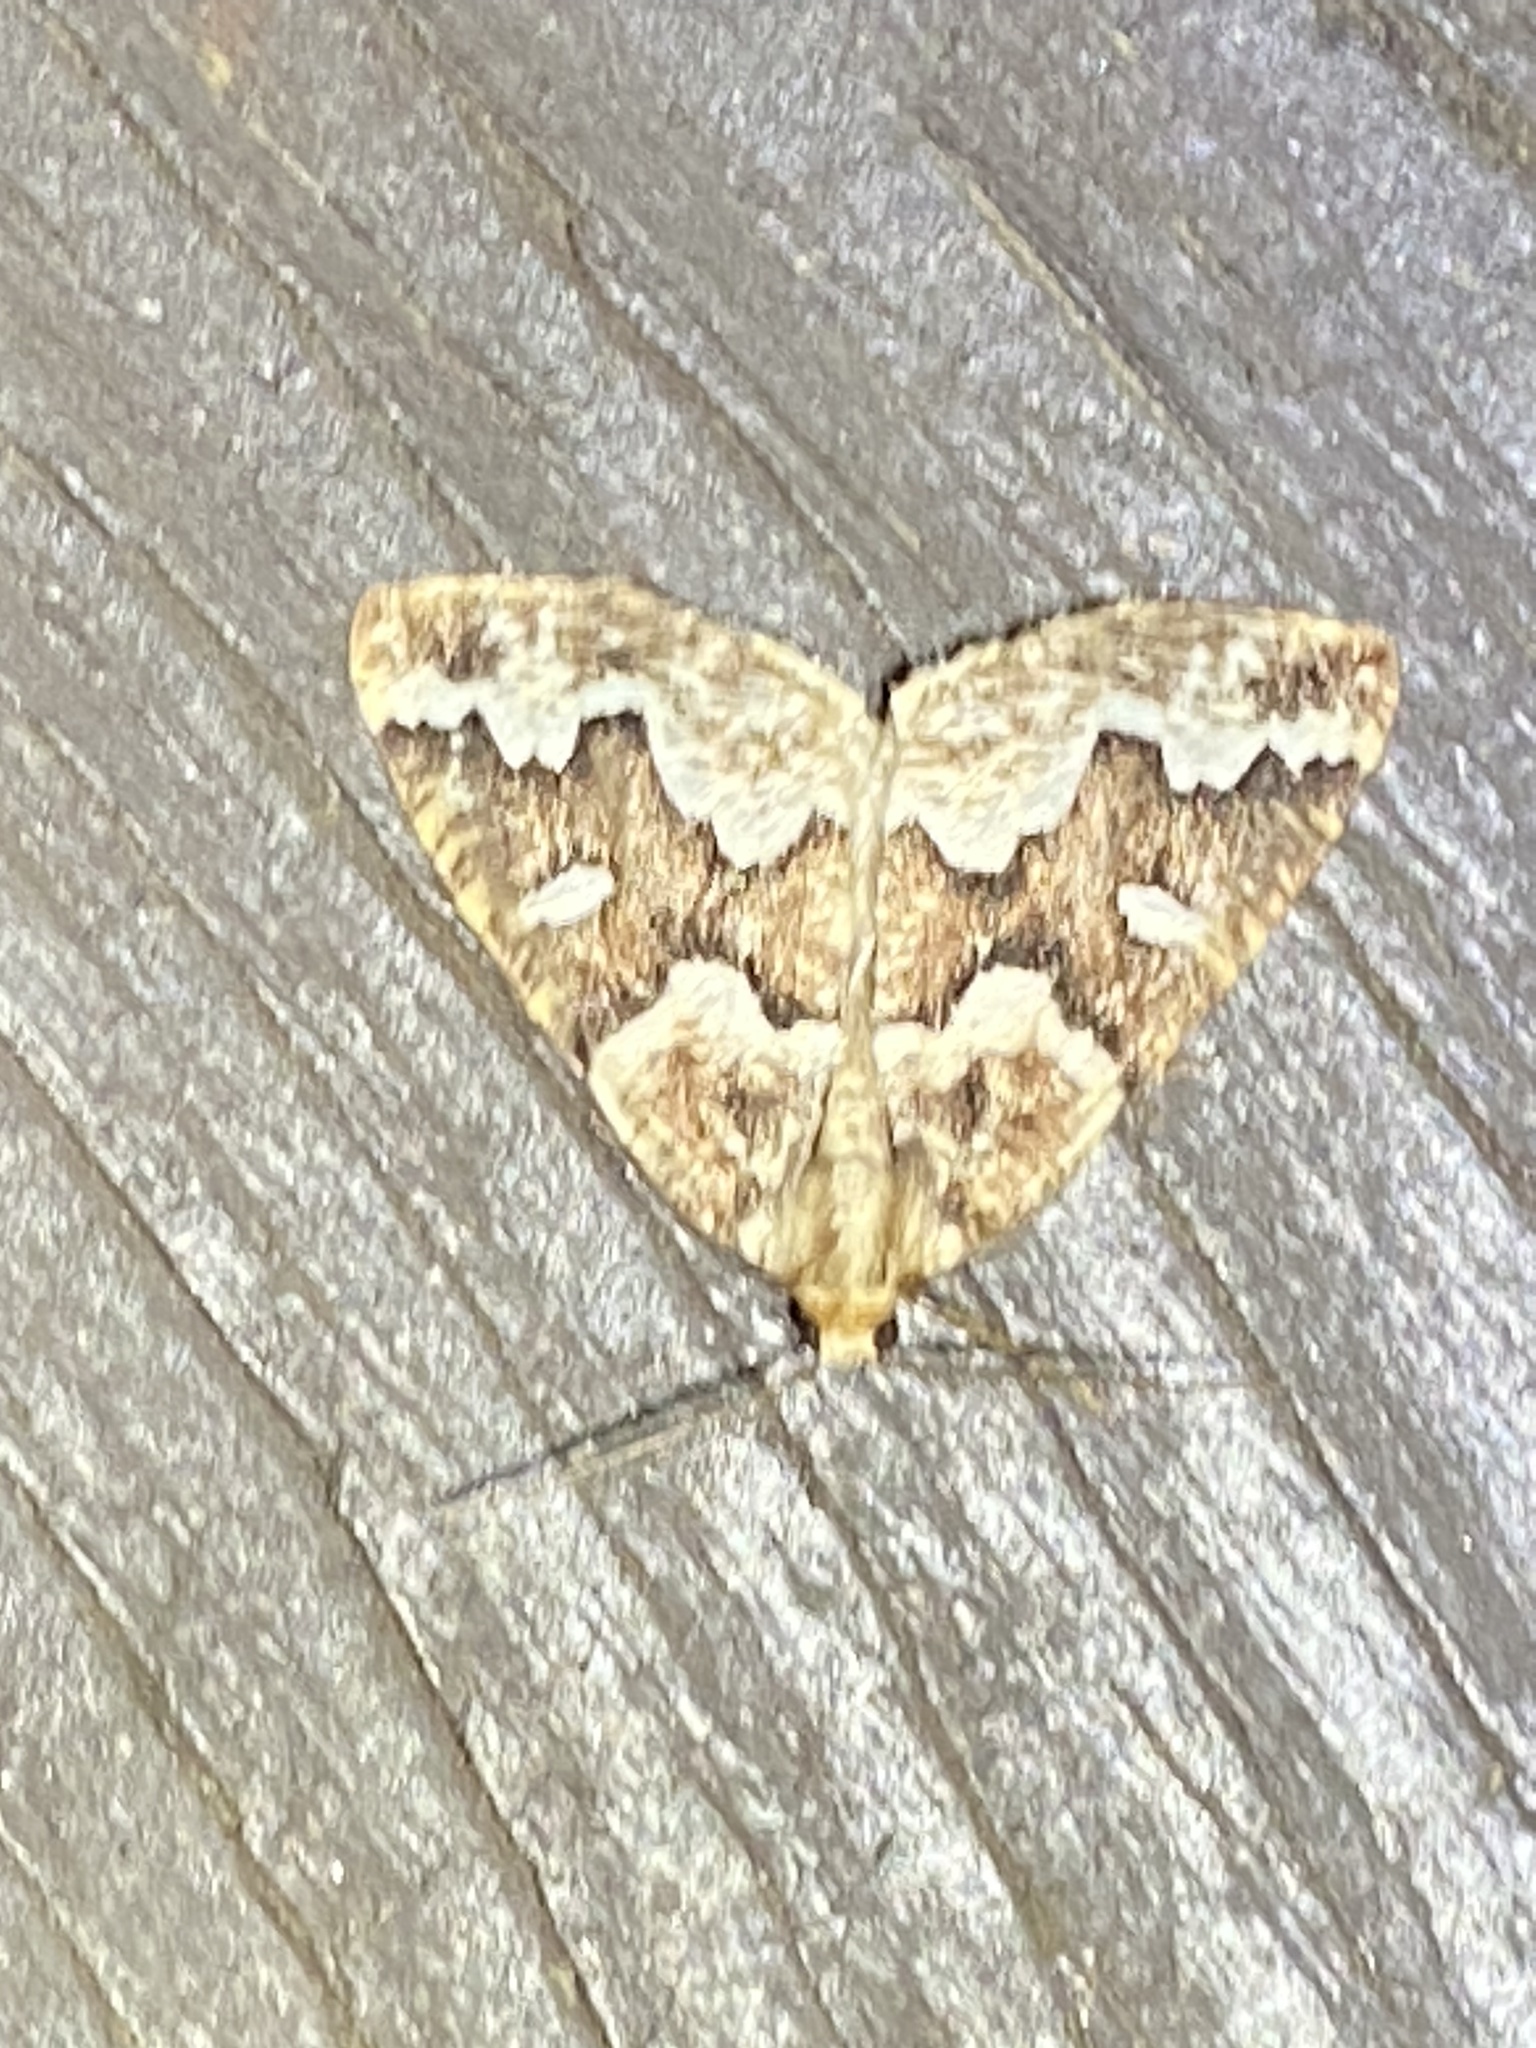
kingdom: Animalia
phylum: Arthropoda
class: Insecta
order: Lepidoptera
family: Geometridae
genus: Caripeta
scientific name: Caripeta divisata
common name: Gray spruce looper
